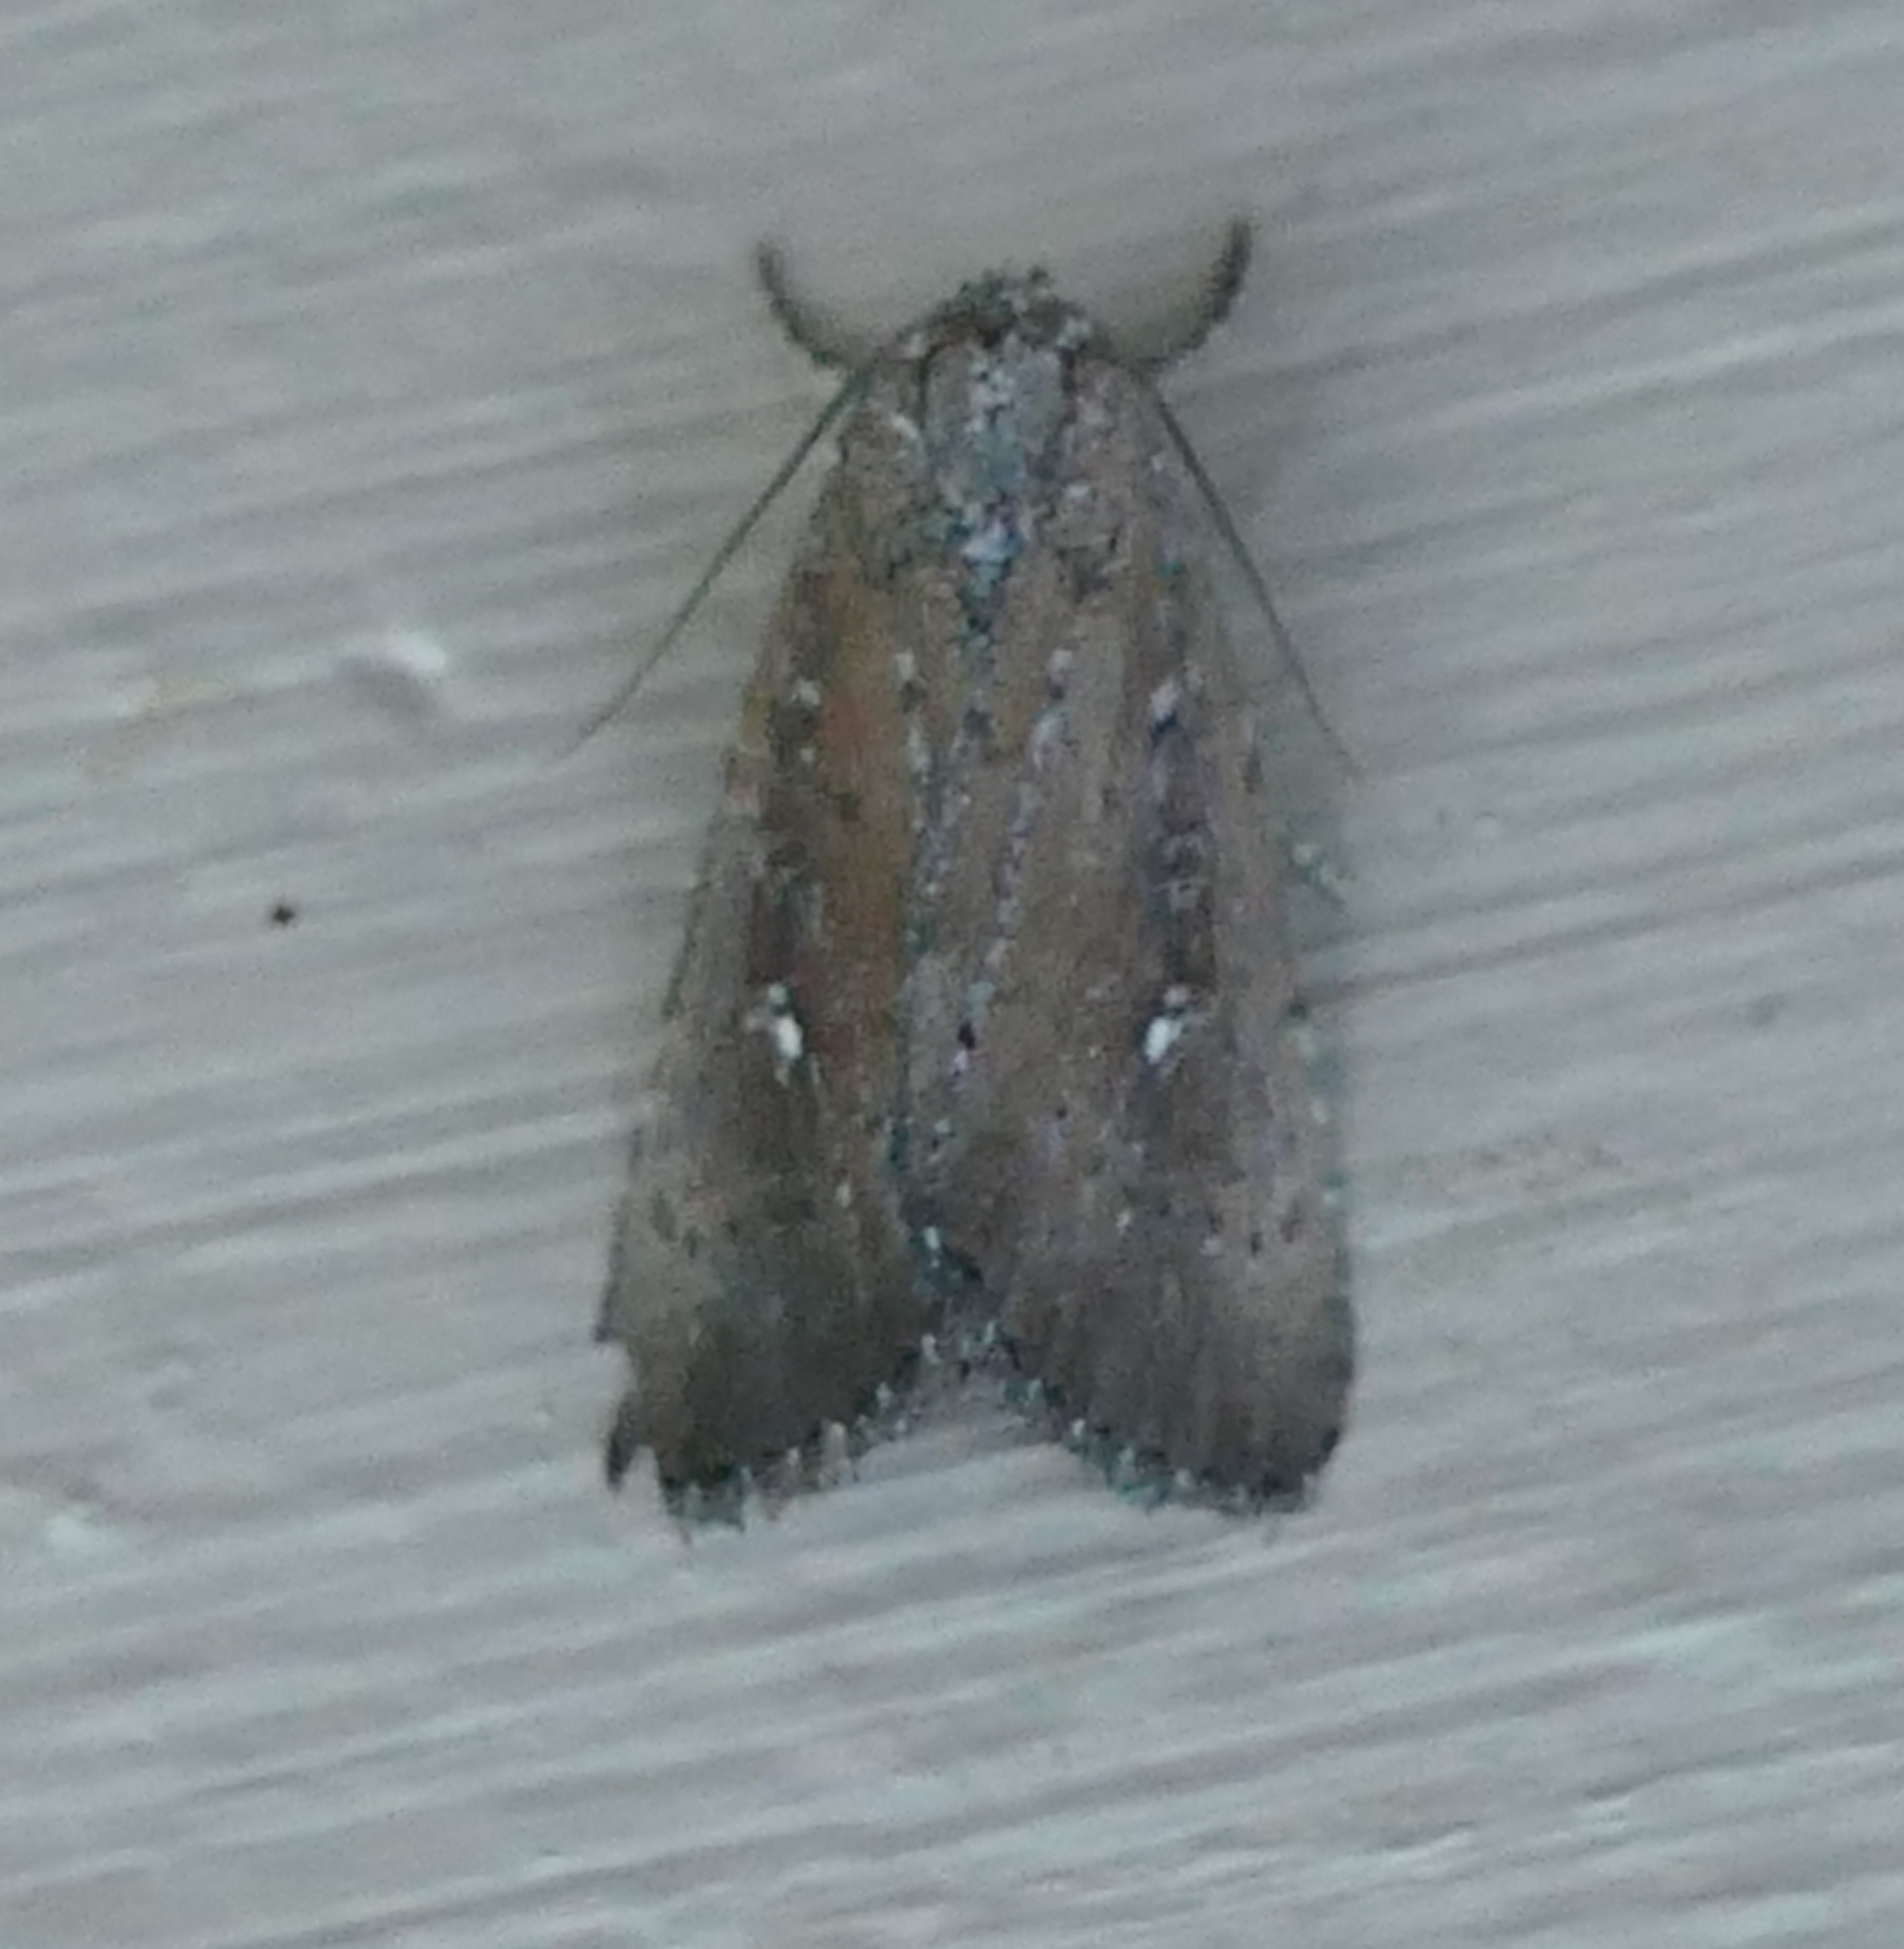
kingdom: Animalia
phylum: Arthropoda
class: Insecta
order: Lepidoptera
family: Noctuidae
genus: Condica
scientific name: Condica videns
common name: White-dotted groundling
